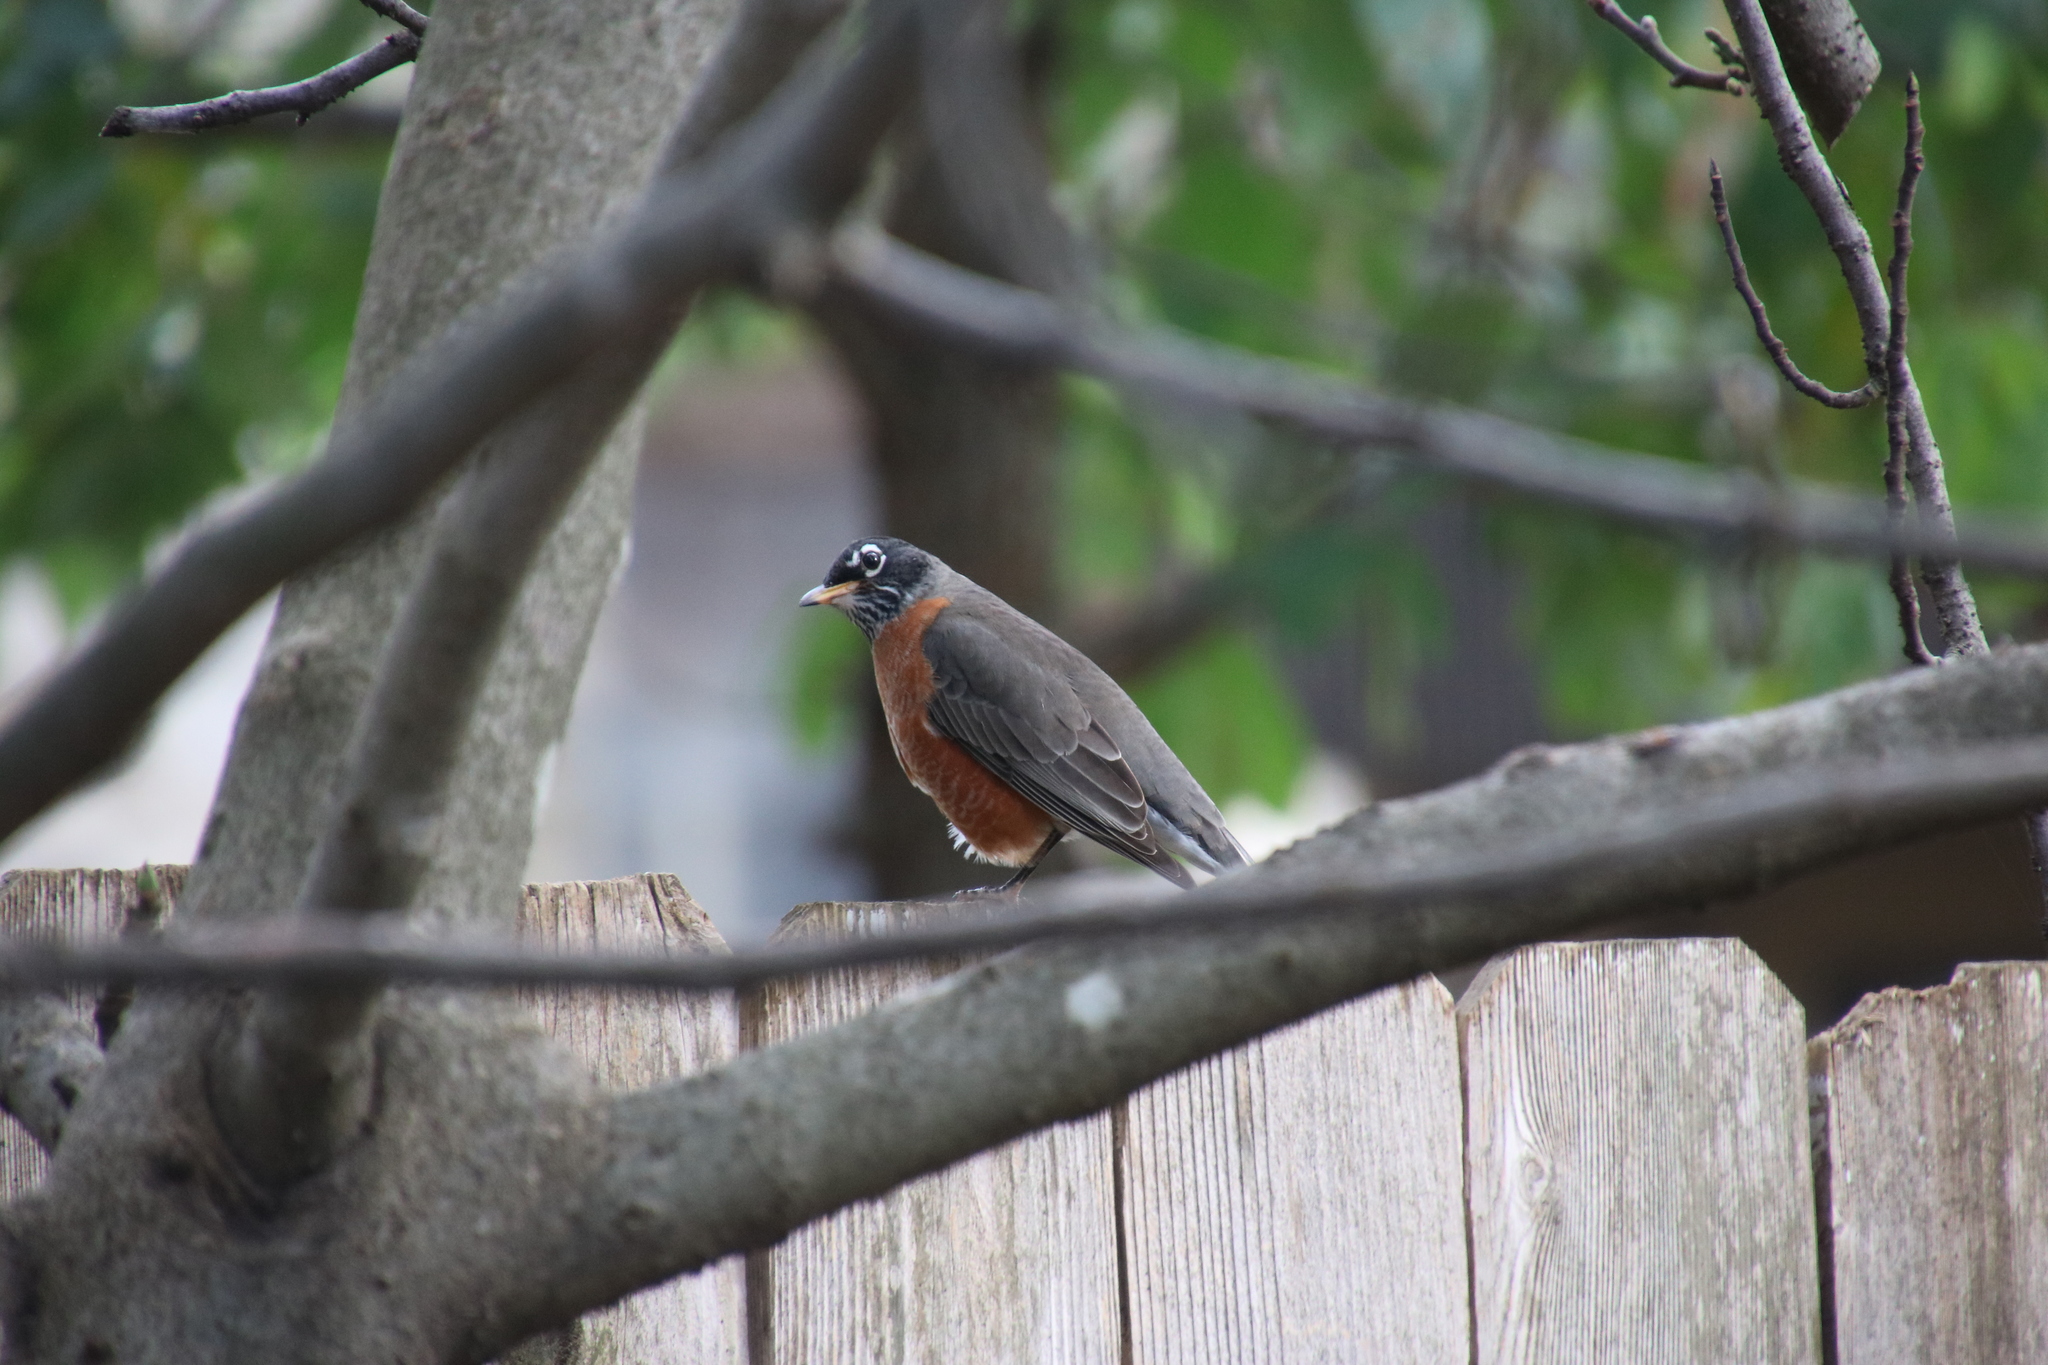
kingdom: Animalia
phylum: Chordata
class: Aves
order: Passeriformes
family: Turdidae
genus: Turdus
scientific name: Turdus migratorius
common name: American robin
